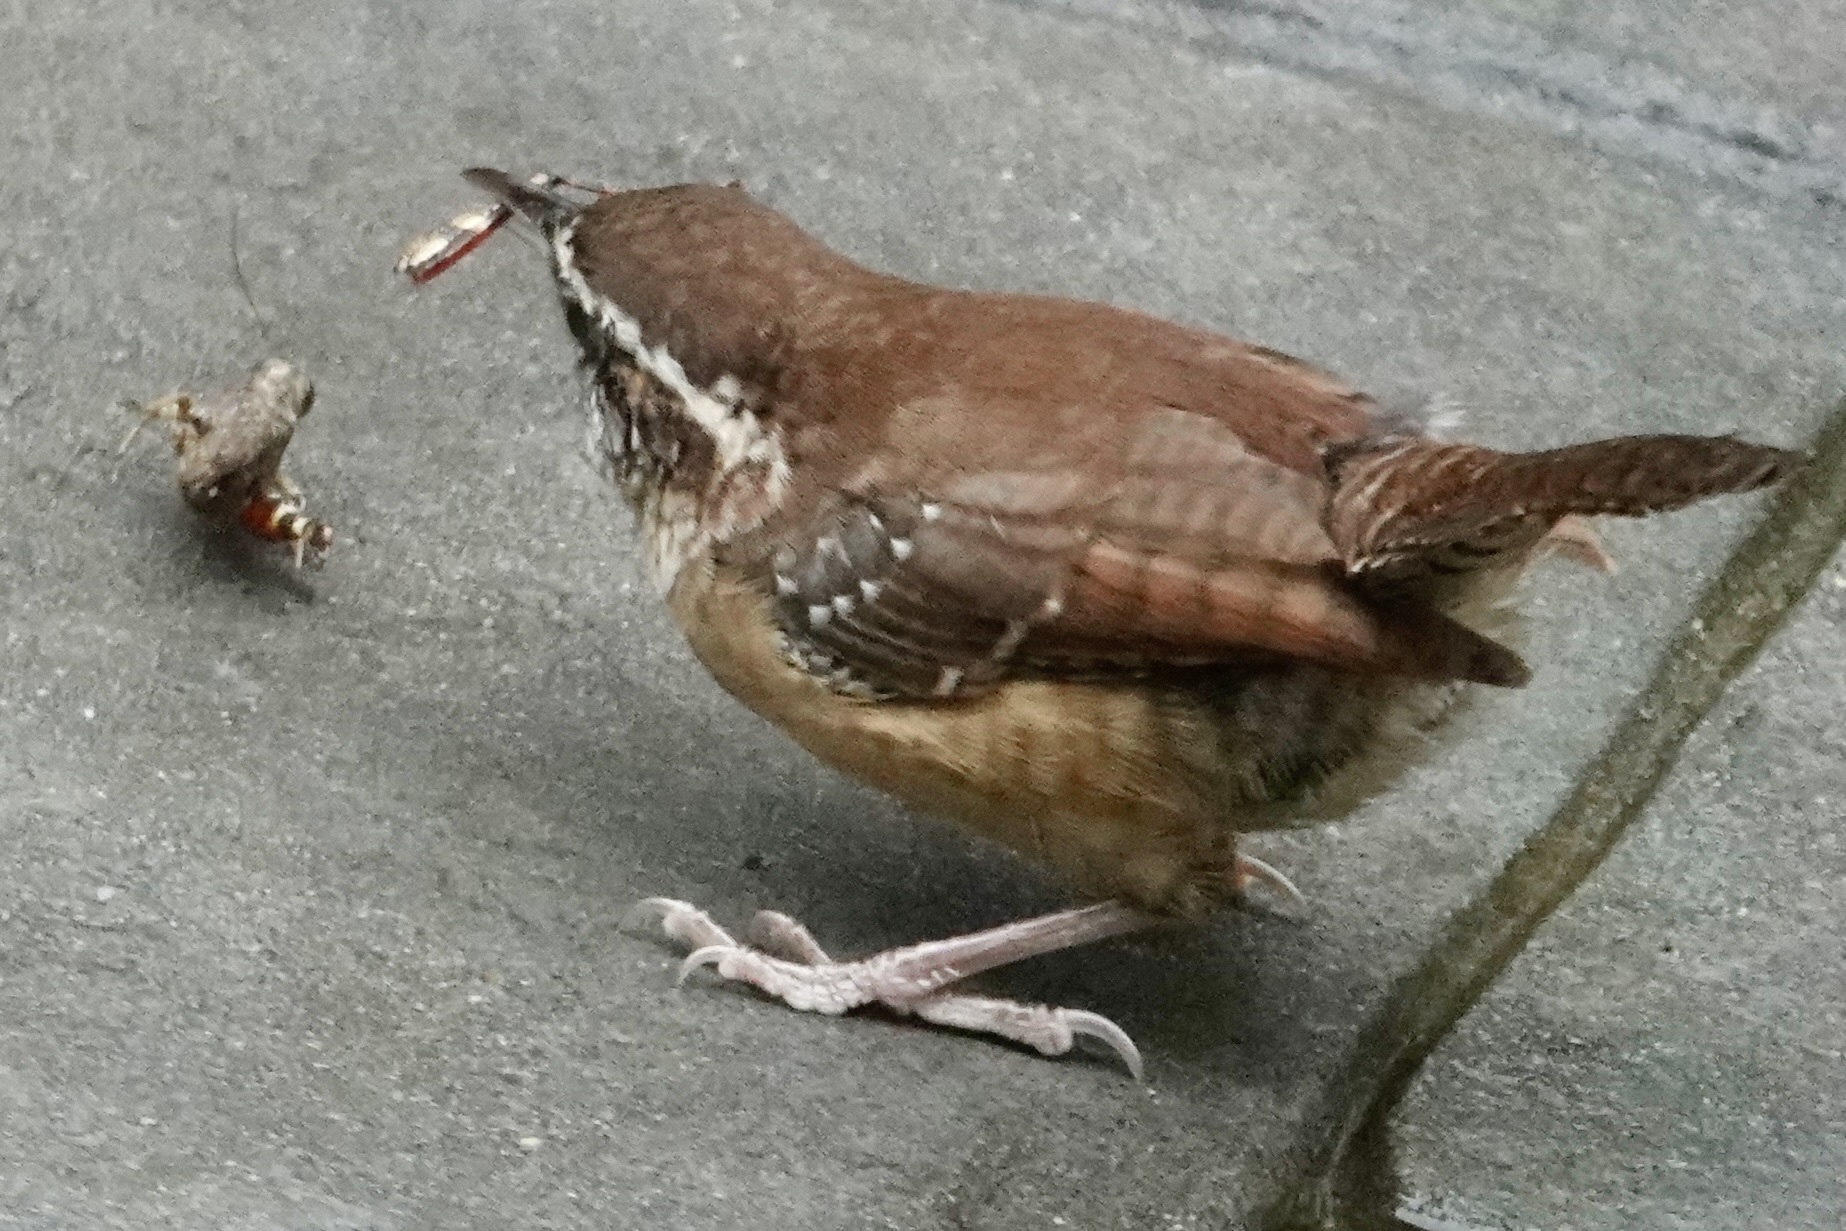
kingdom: Animalia
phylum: Chordata
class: Aves
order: Passeriformes
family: Troglodytidae
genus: Thryothorus
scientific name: Thryothorus ludovicianus
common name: Carolina wren
